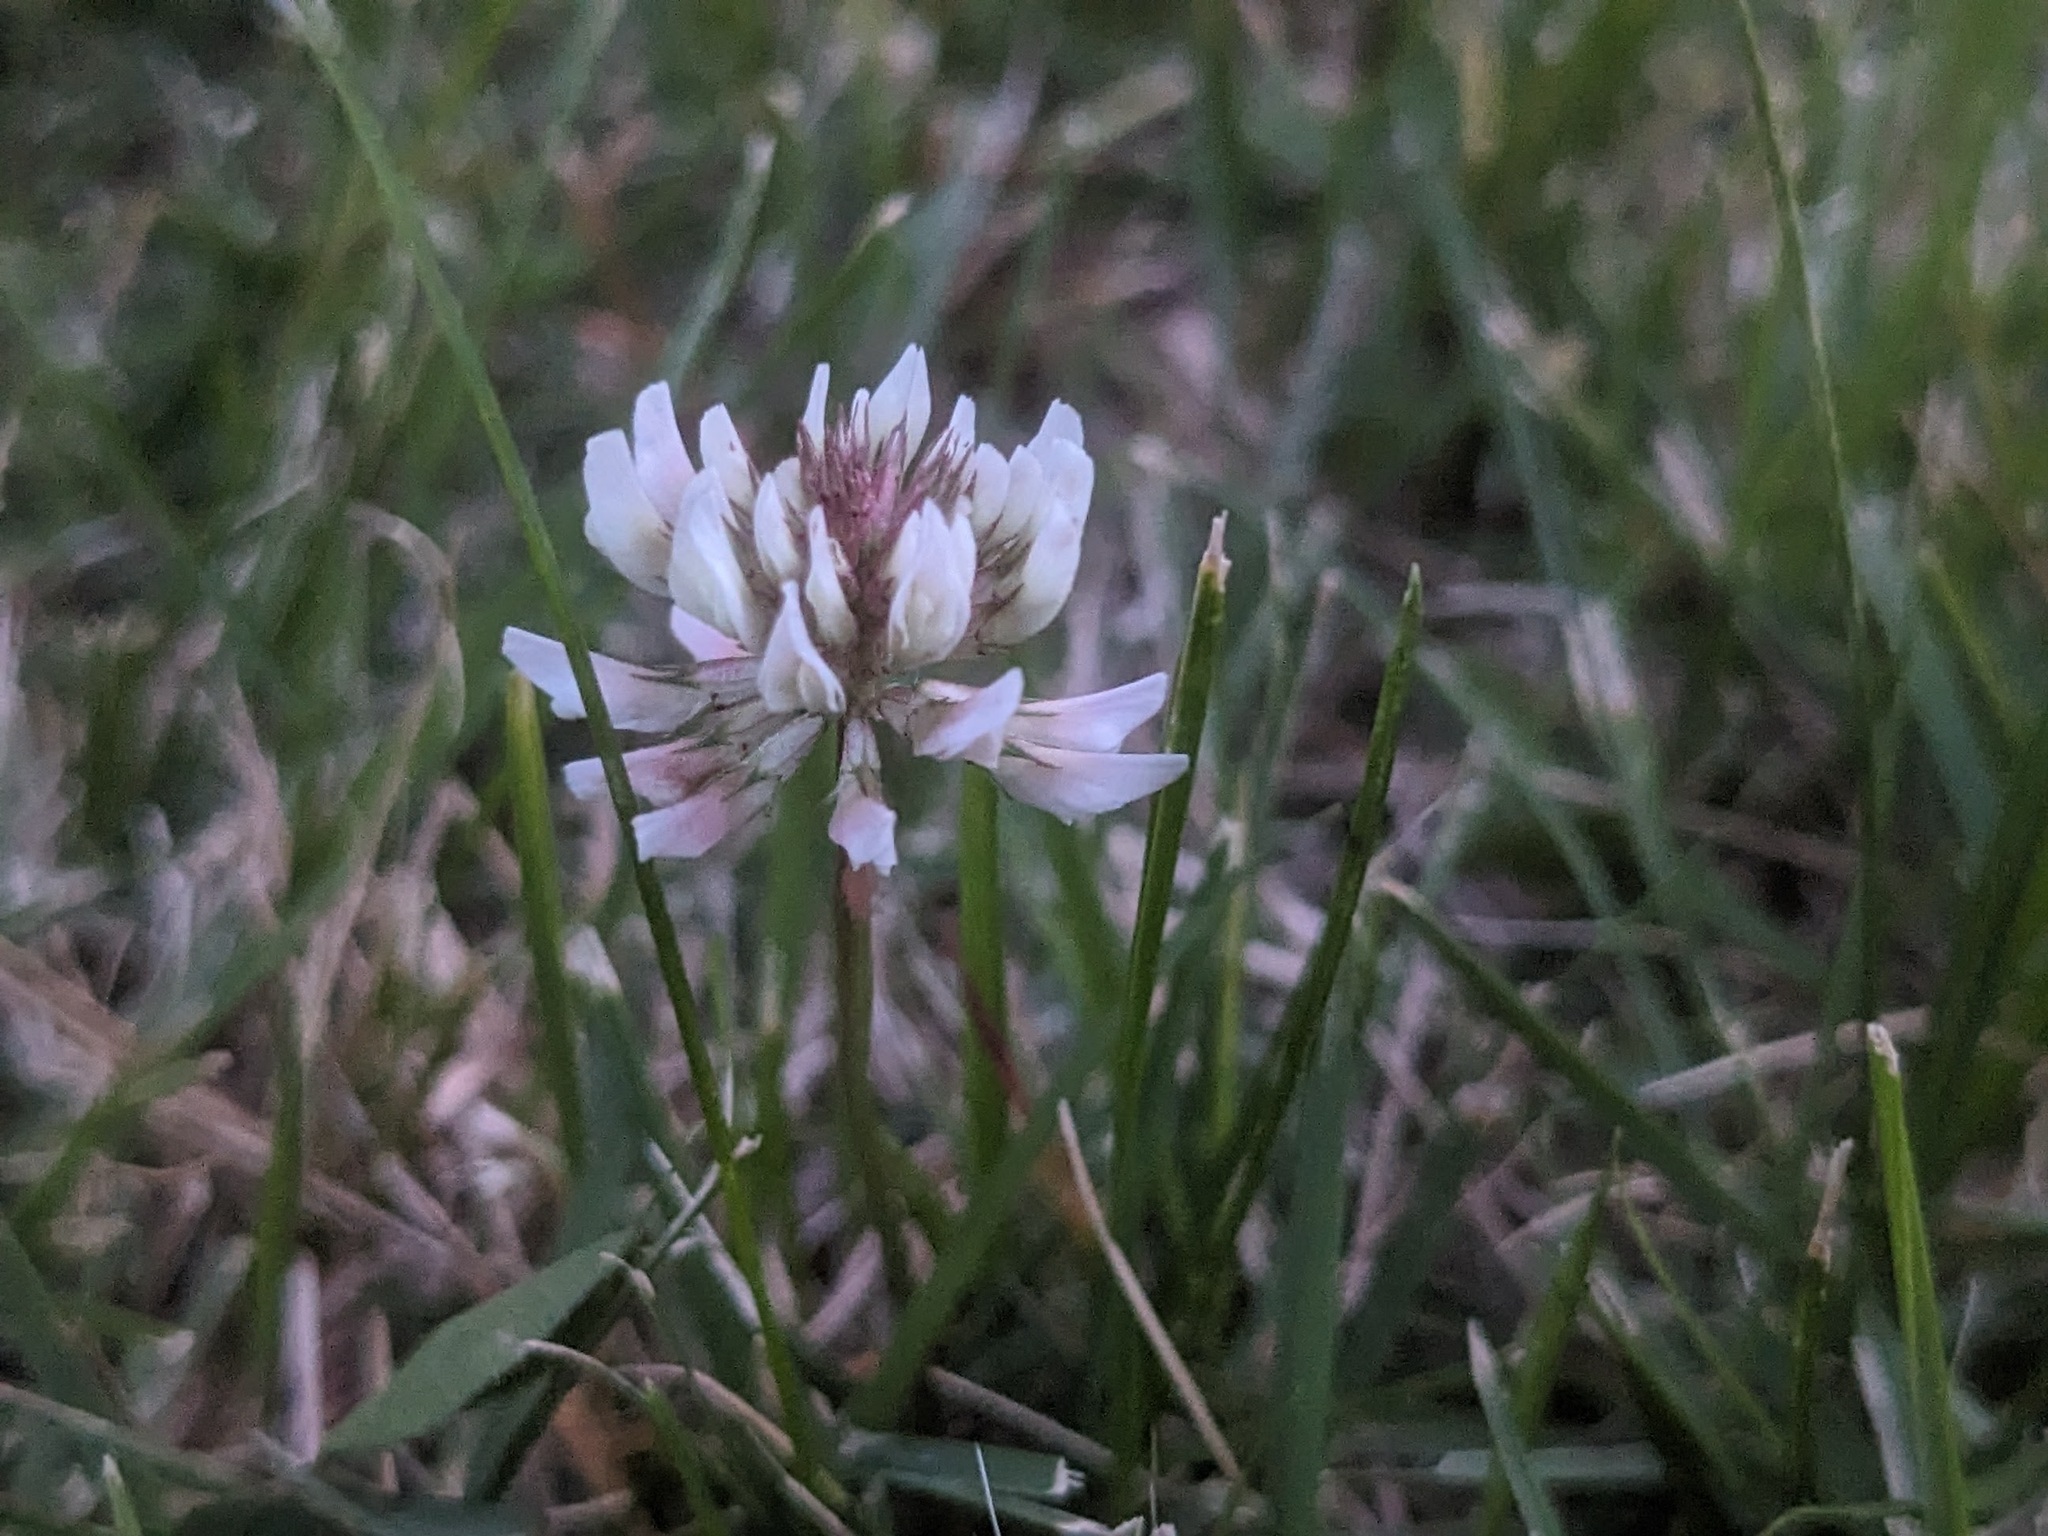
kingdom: Plantae
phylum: Tracheophyta
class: Magnoliopsida
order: Fabales
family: Fabaceae
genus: Trifolium
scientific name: Trifolium repens
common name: White clover
